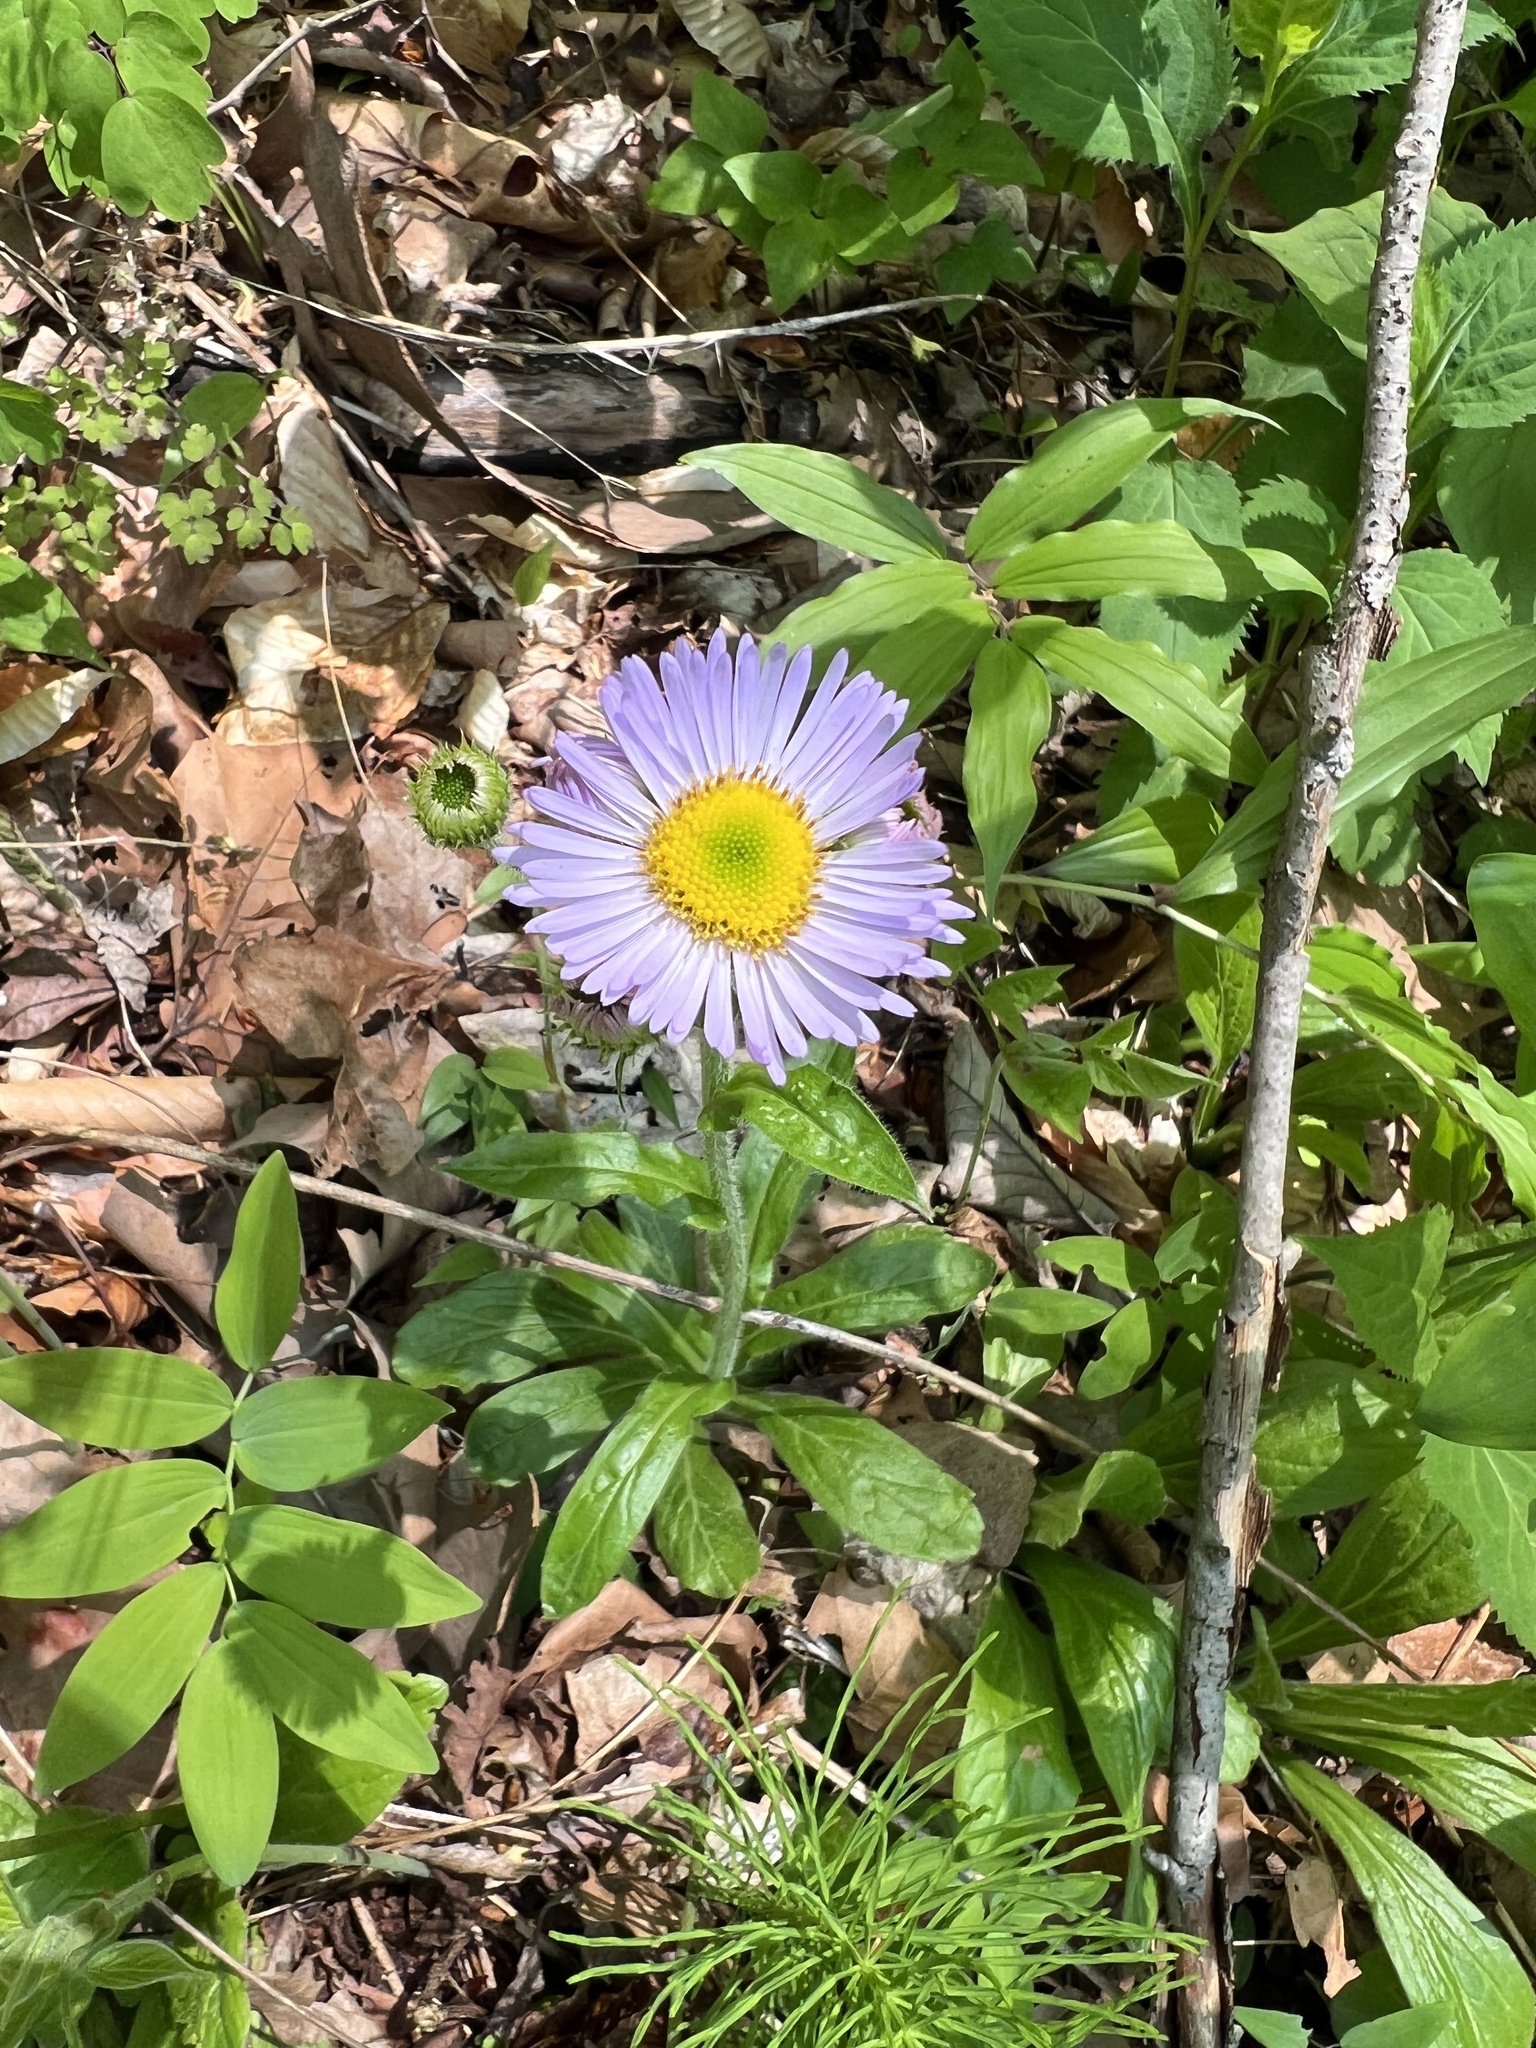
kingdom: Plantae
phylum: Tracheophyta
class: Magnoliopsida
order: Asterales
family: Asteraceae
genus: Erigeron
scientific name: Erigeron pulchellus
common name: Hairy fleabane
